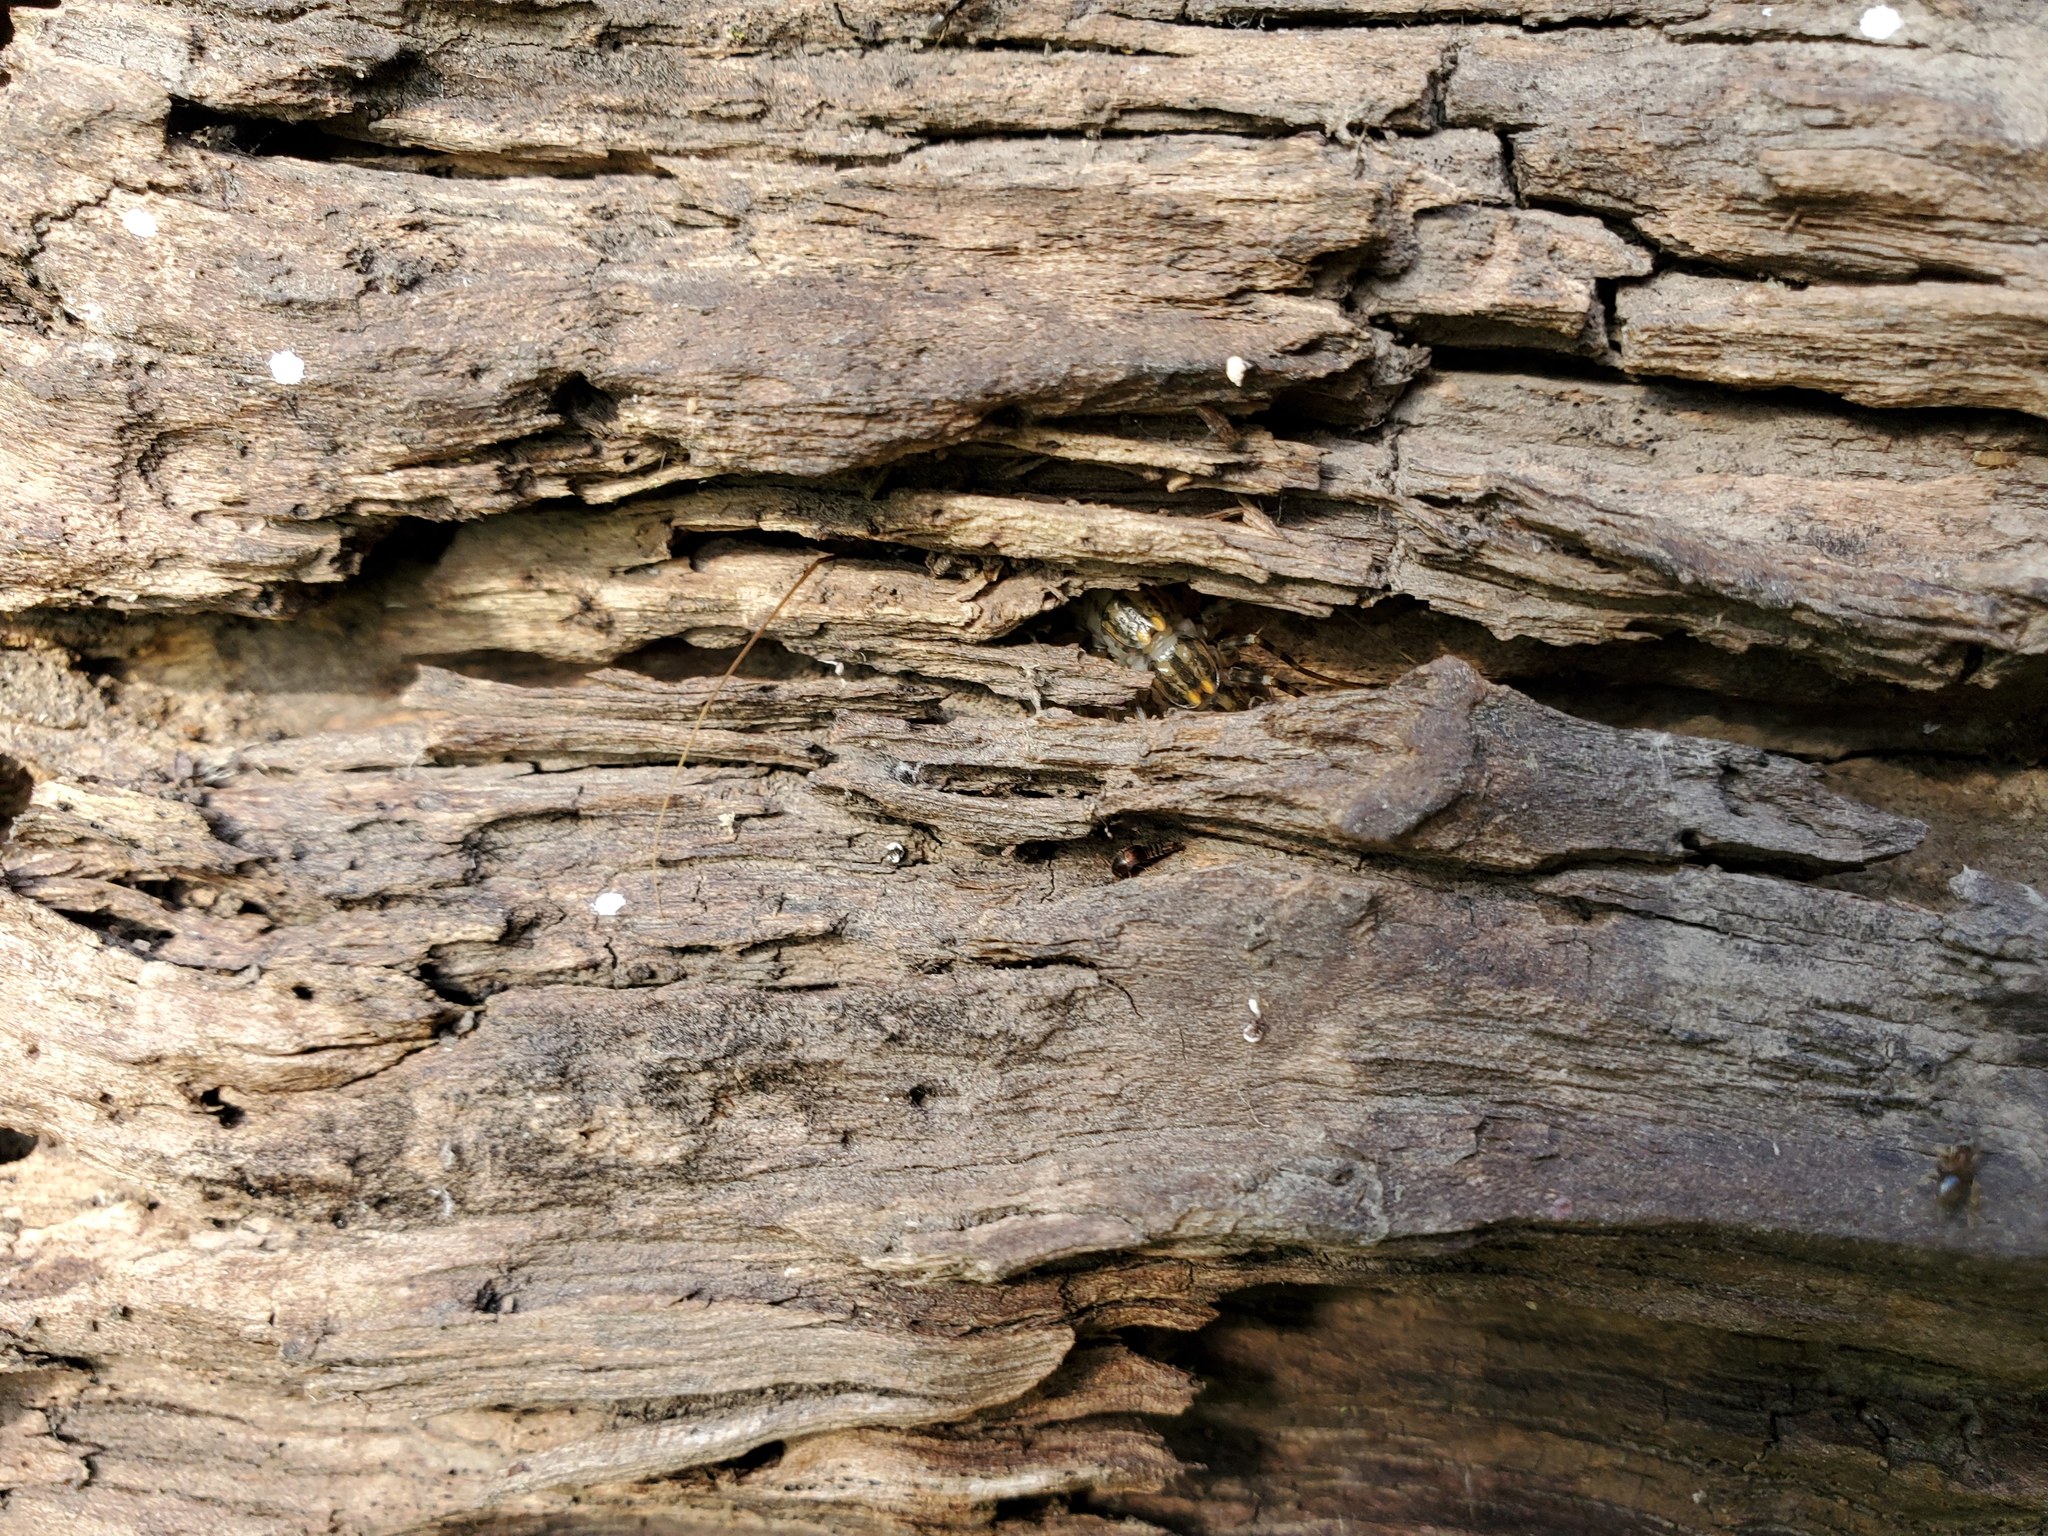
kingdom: Animalia
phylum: Arthropoda
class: Chilopoda
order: Scutigeromorpha
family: Scutigeridae
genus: Scutigera
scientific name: Scutigera coleoptrata
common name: House centipede
